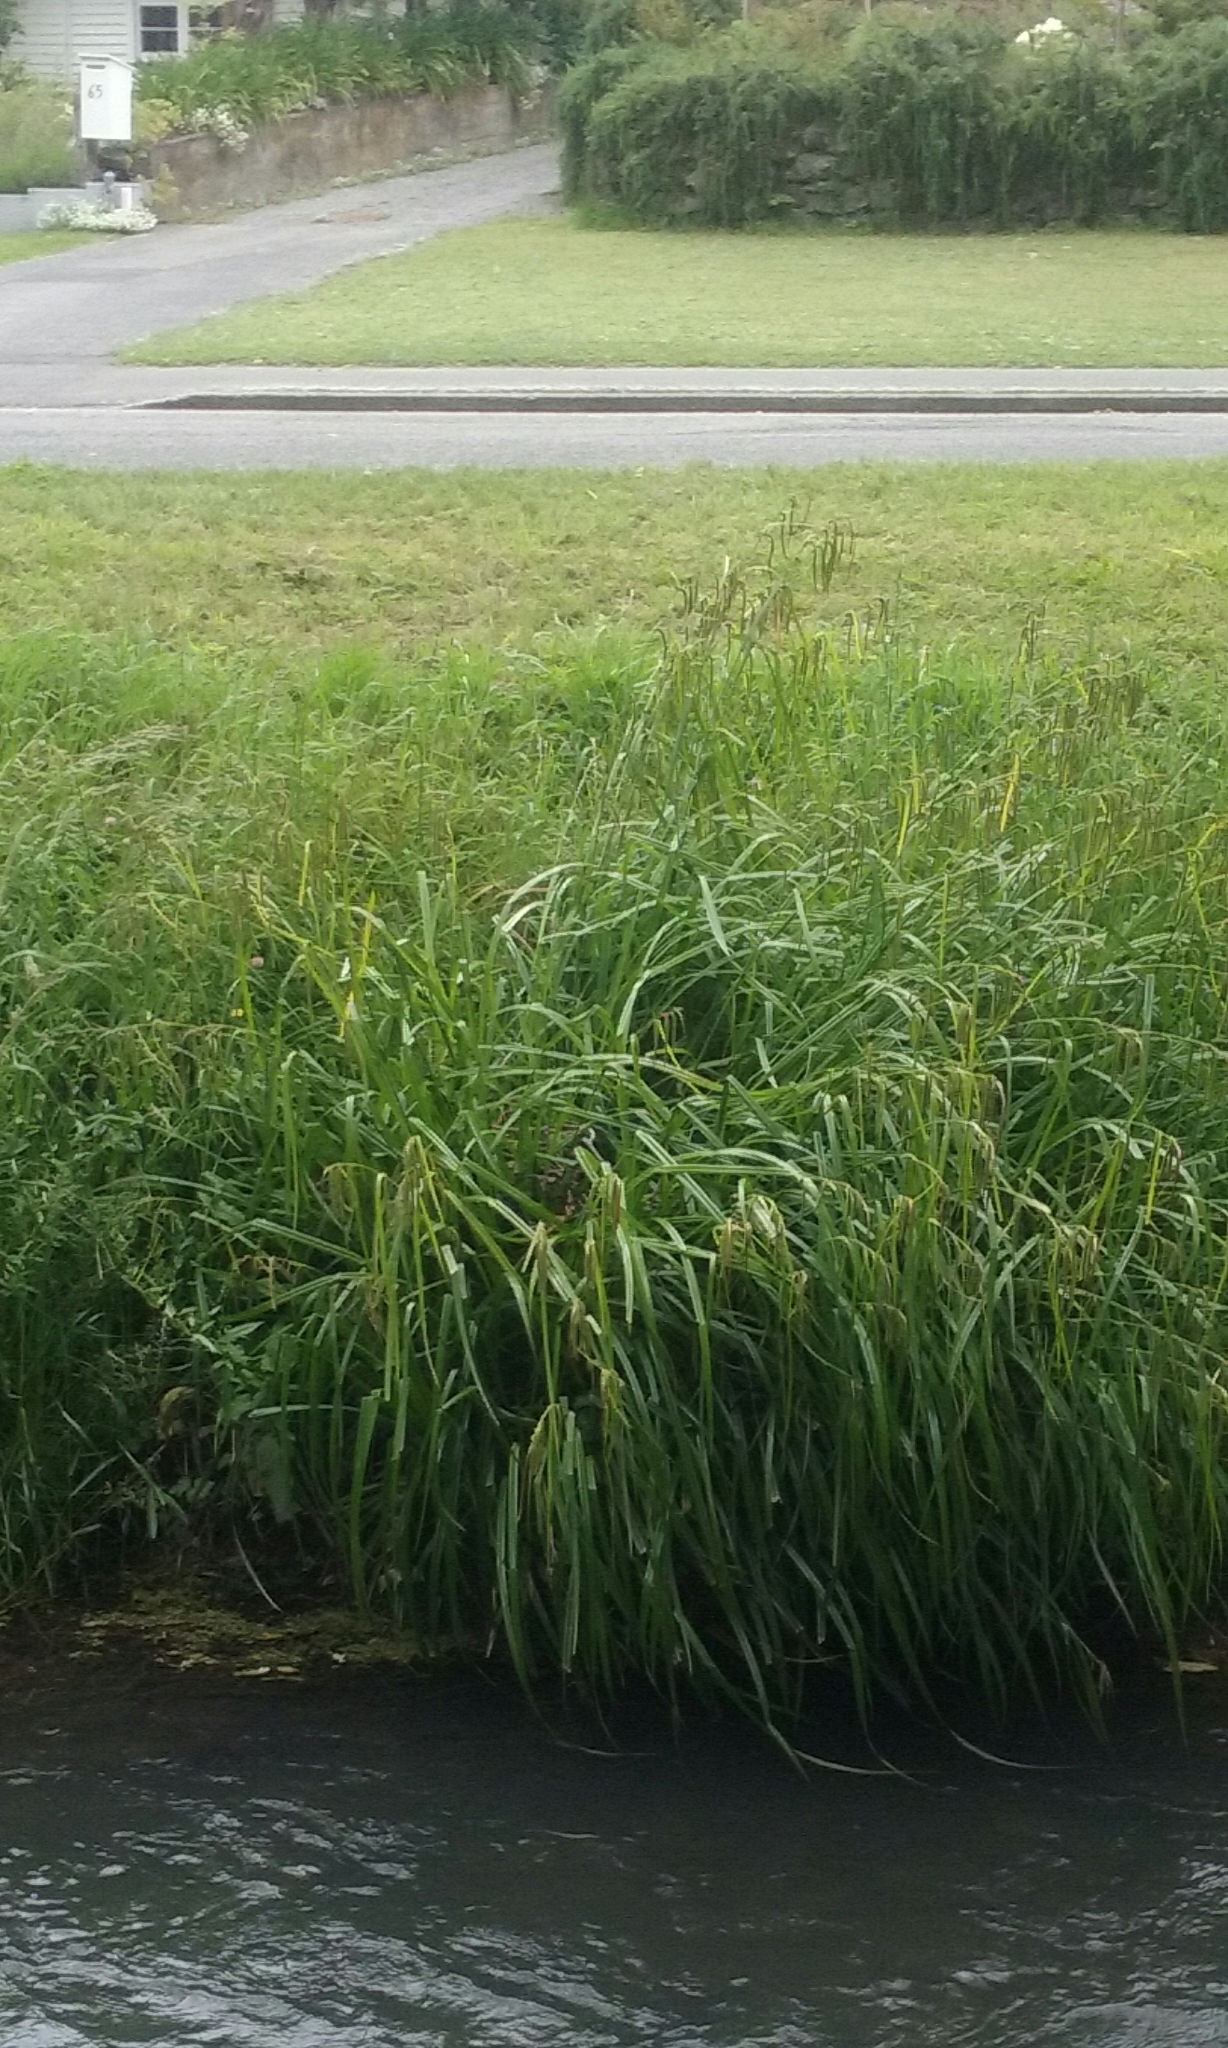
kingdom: Plantae
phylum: Tracheophyta
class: Liliopsida
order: Poales
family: Cyperaceae
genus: Carex
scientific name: Carex pendula
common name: Pendulous sedge
